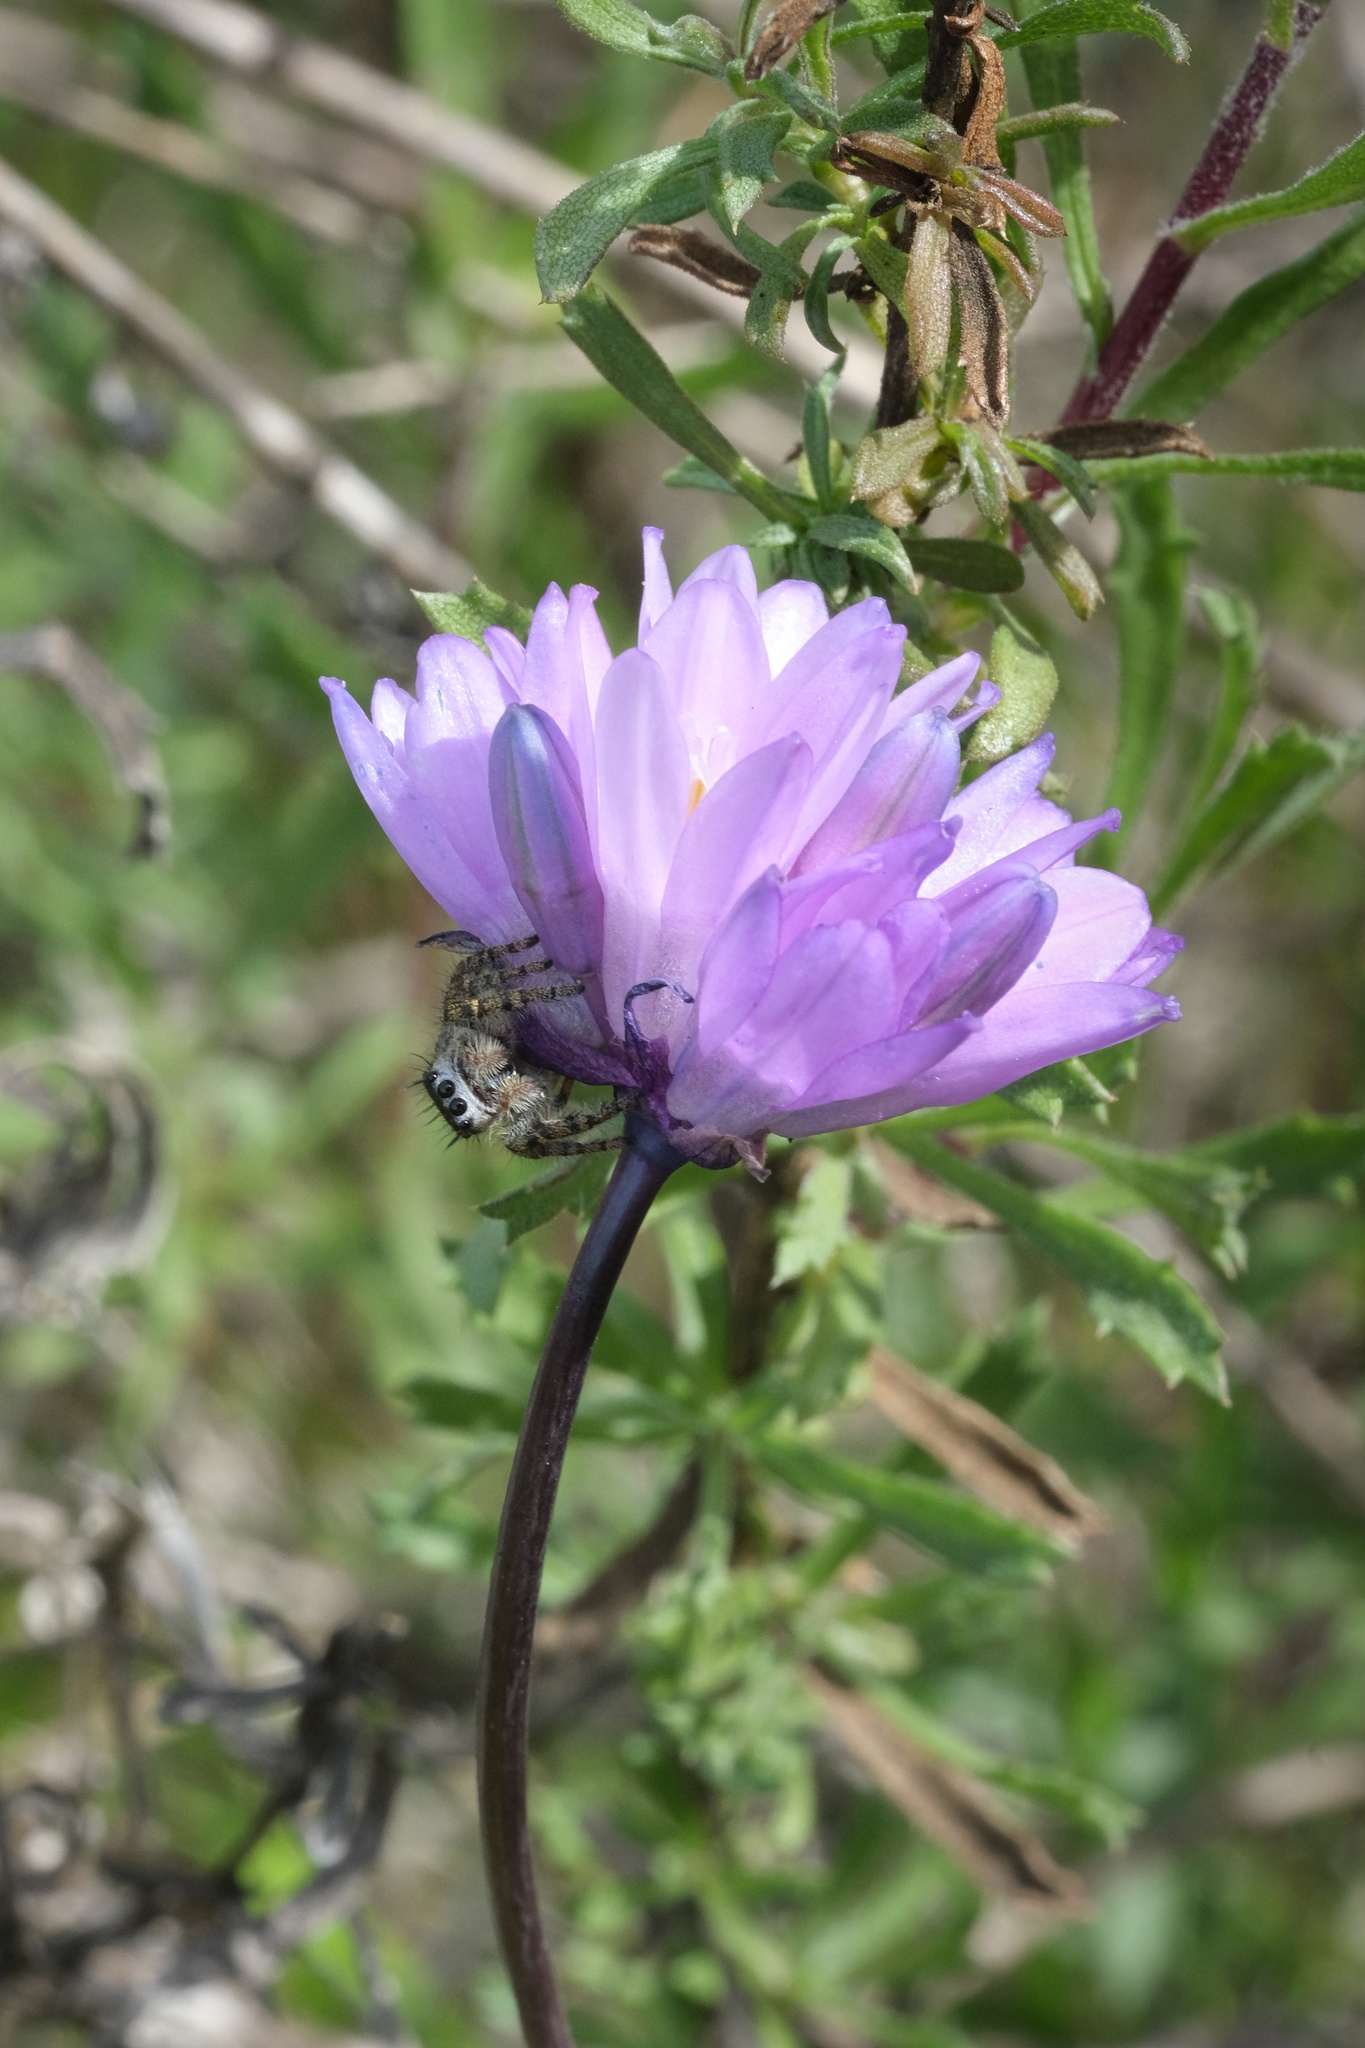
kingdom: Plantae
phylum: Tracheophyta
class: Liliopsida
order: Asparagales
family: Asparagaceae
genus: Dipterostemon
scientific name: Dipterostemon capitatus
